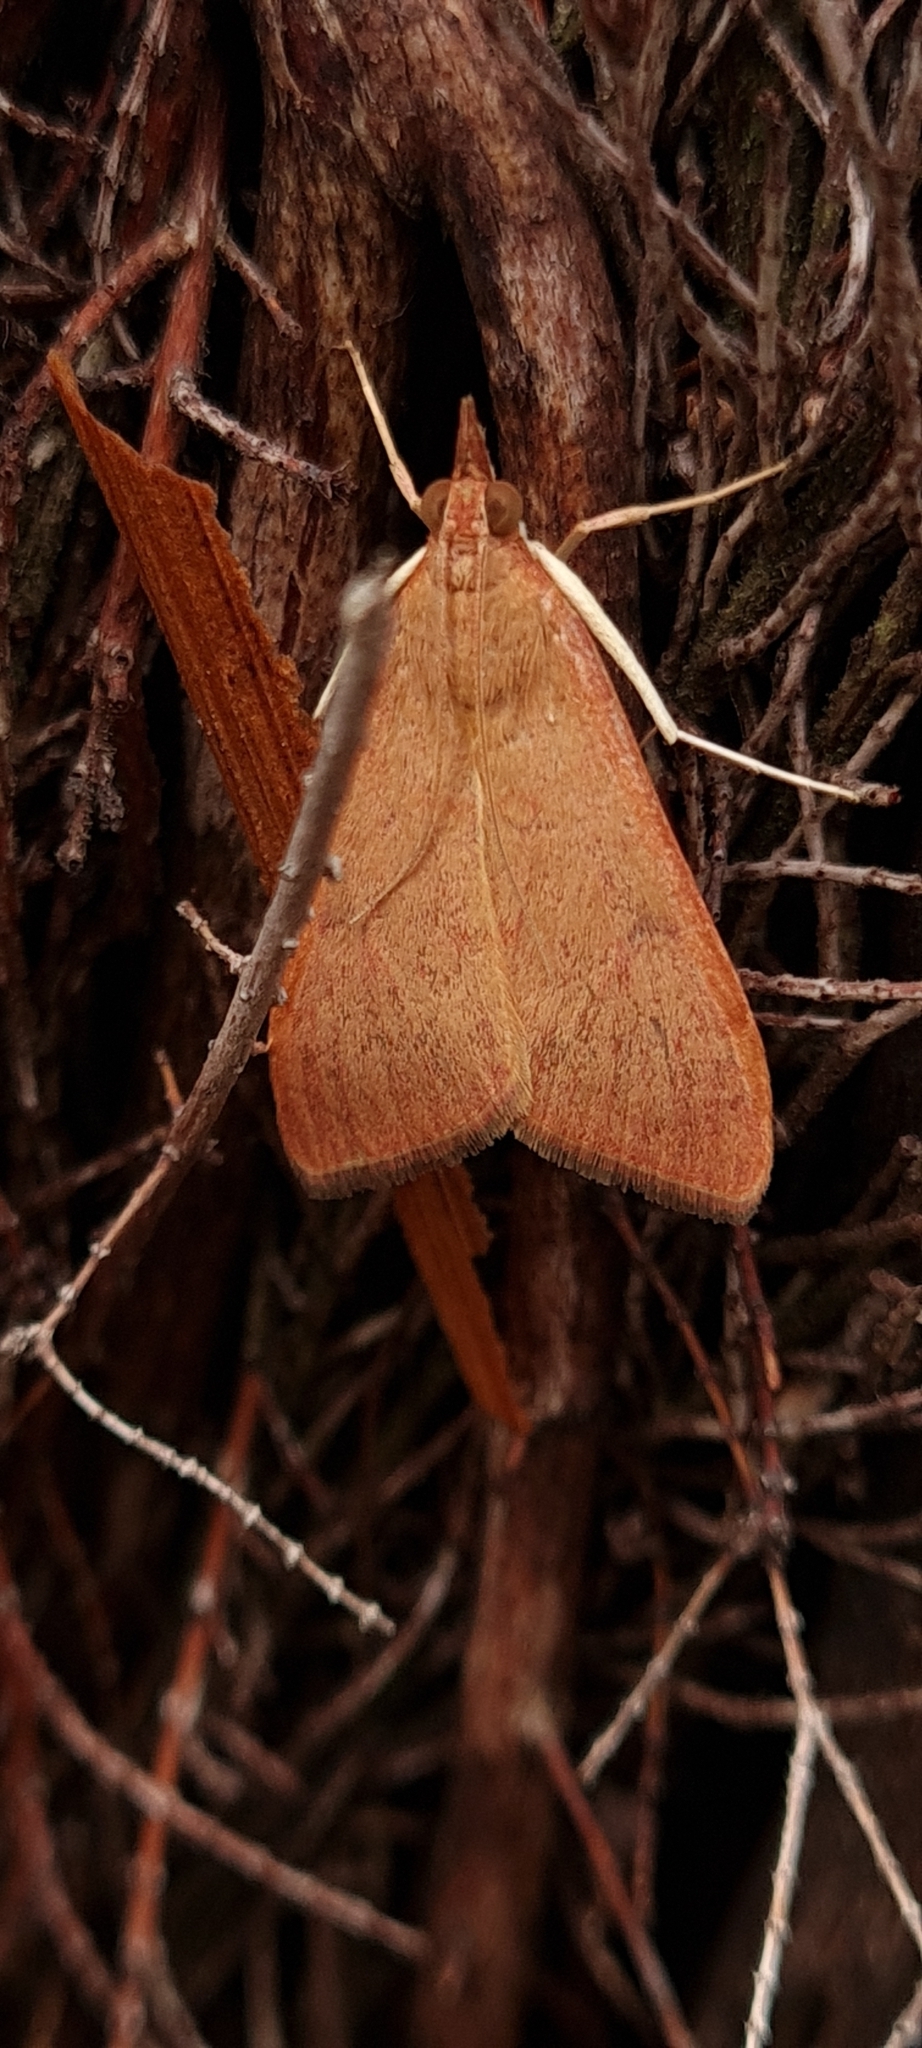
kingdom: Animalia
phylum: Arthropoda
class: Insecta
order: Lepidoptera
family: Crambidae
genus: Uresiphita
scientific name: Uresiphita gilvata
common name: Yellow-underwing pearl
